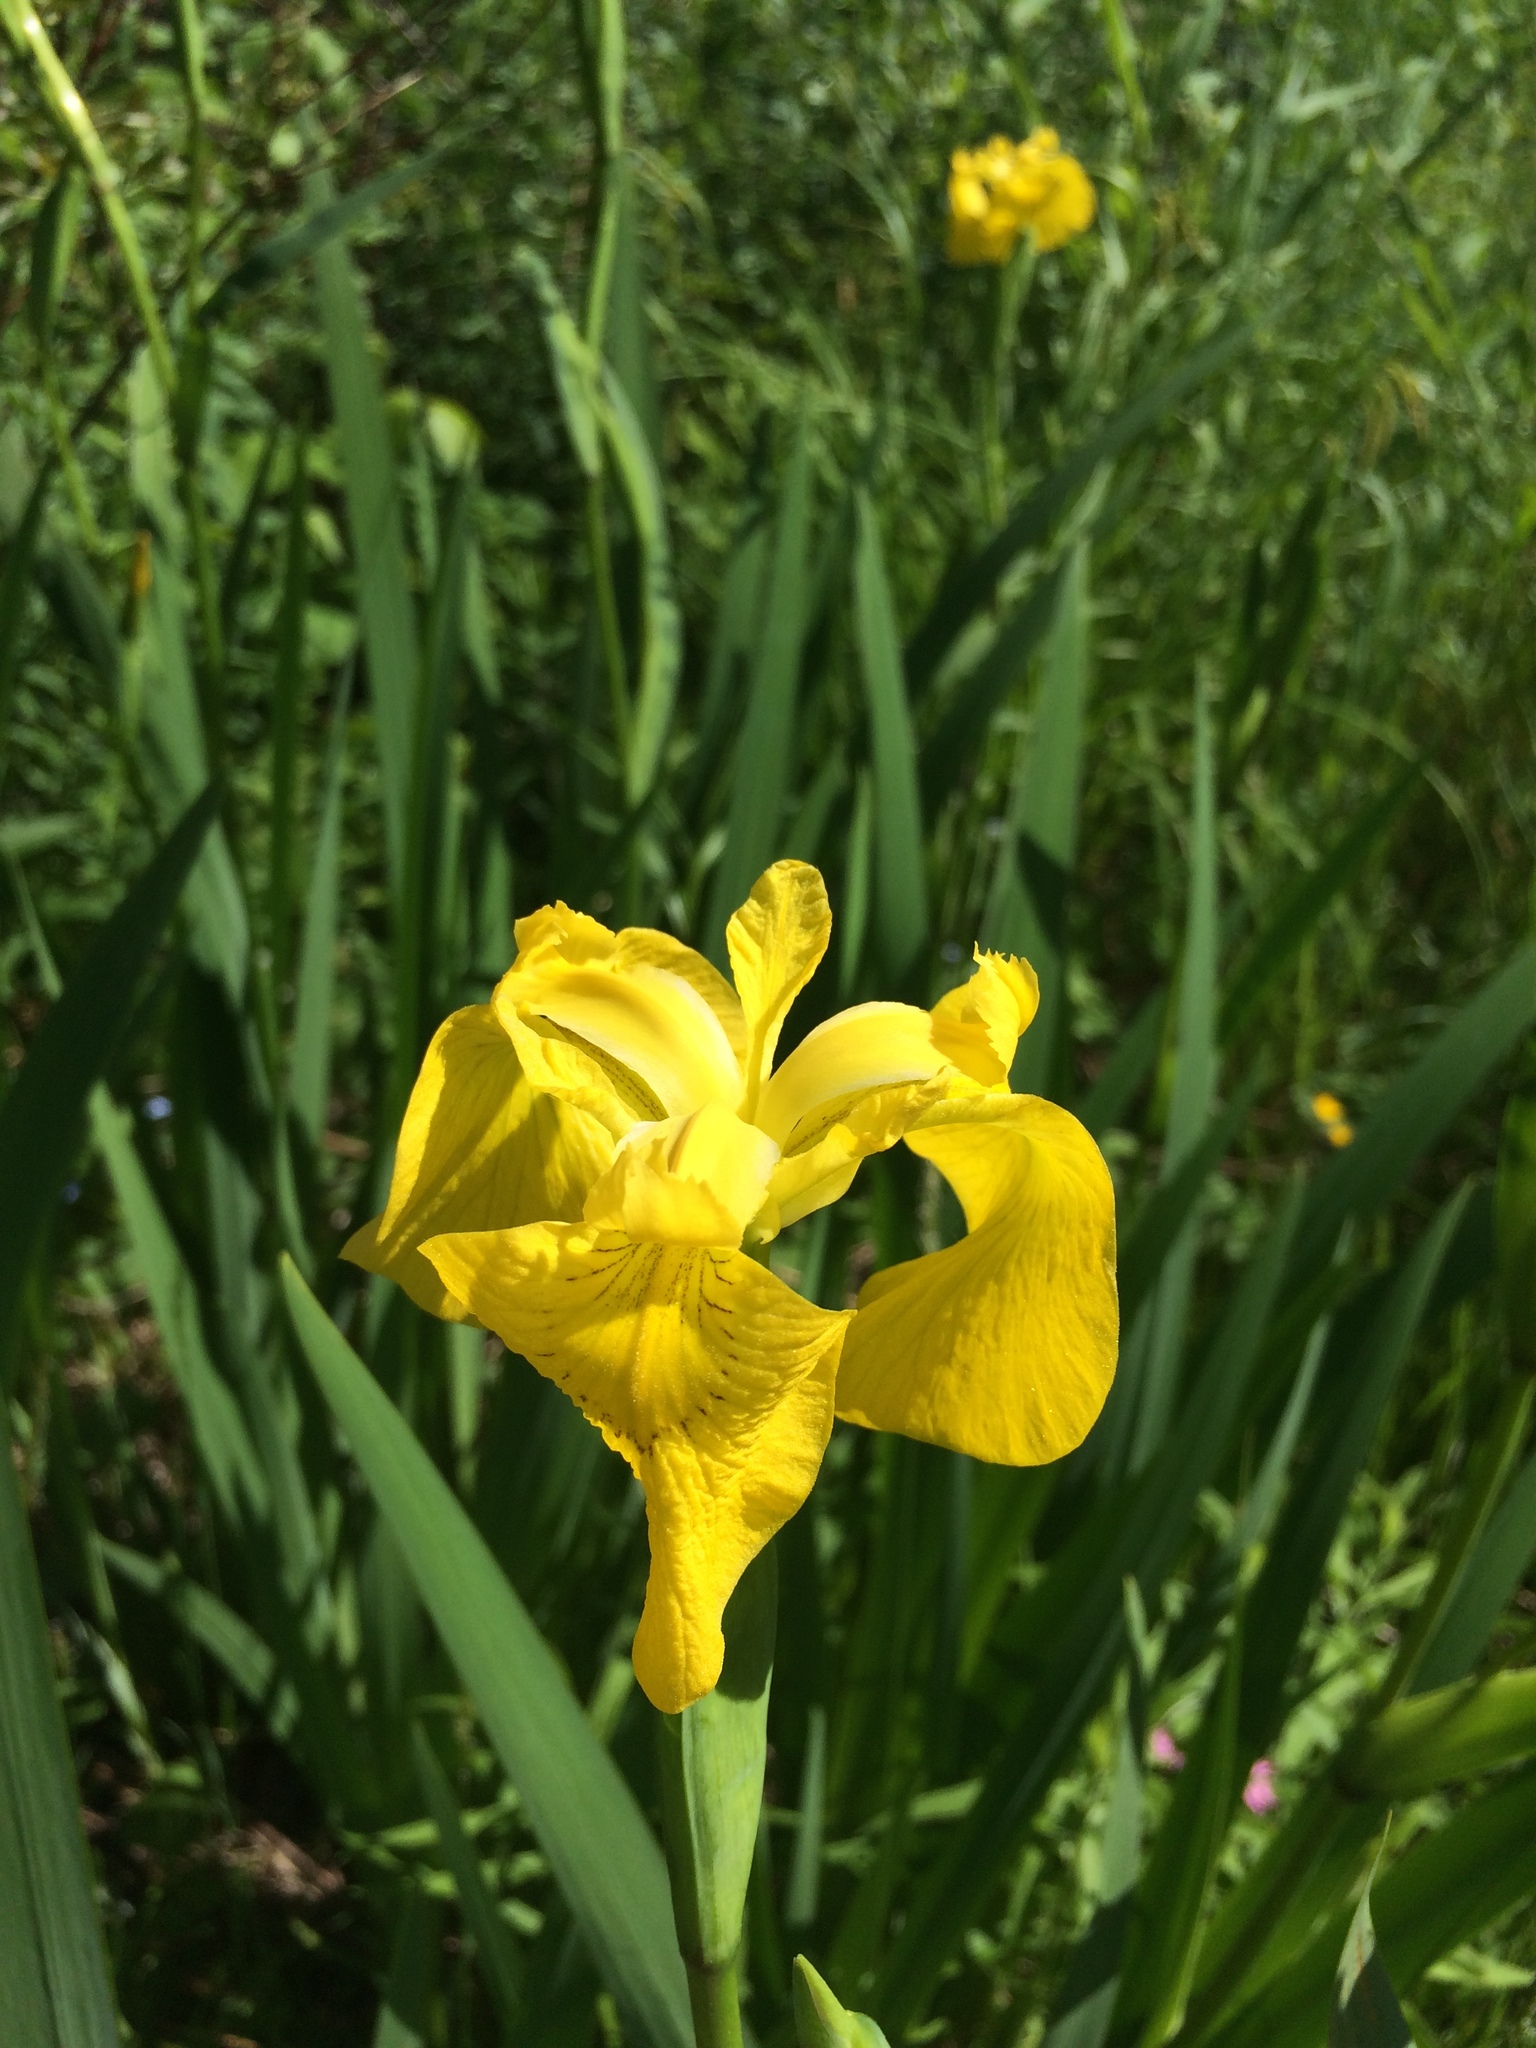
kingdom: Plantae
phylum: Tracheophyta
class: Liliopsida
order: Asparagales
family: Iridaceae
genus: Iris
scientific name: Iris pseudacorus
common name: Yellow flag
